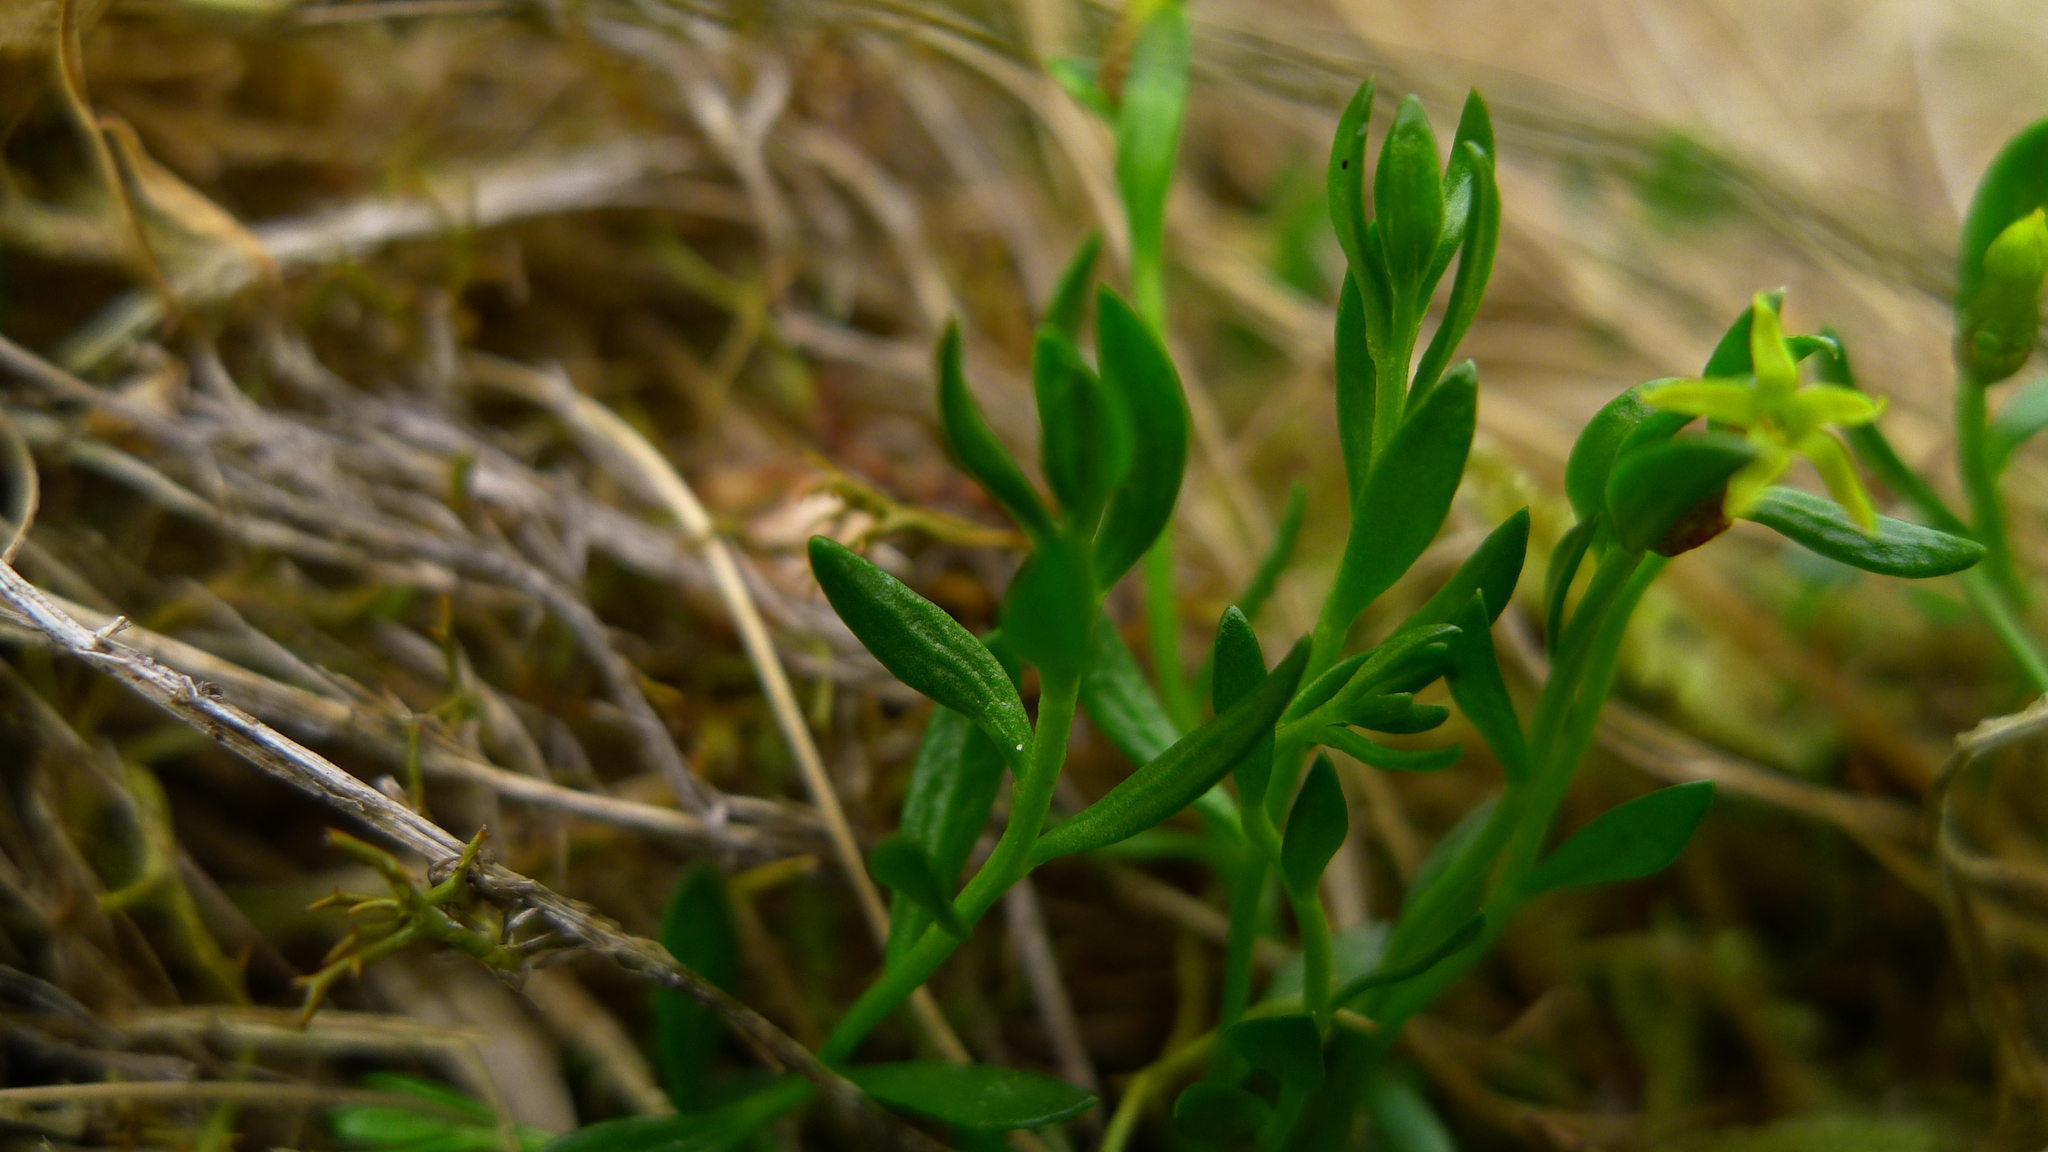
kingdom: Plantae
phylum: Tracheophyta
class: Magnoliopsida
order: Celastrales
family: Celastraceae
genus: Stackhousia
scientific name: Stackhousia minima
